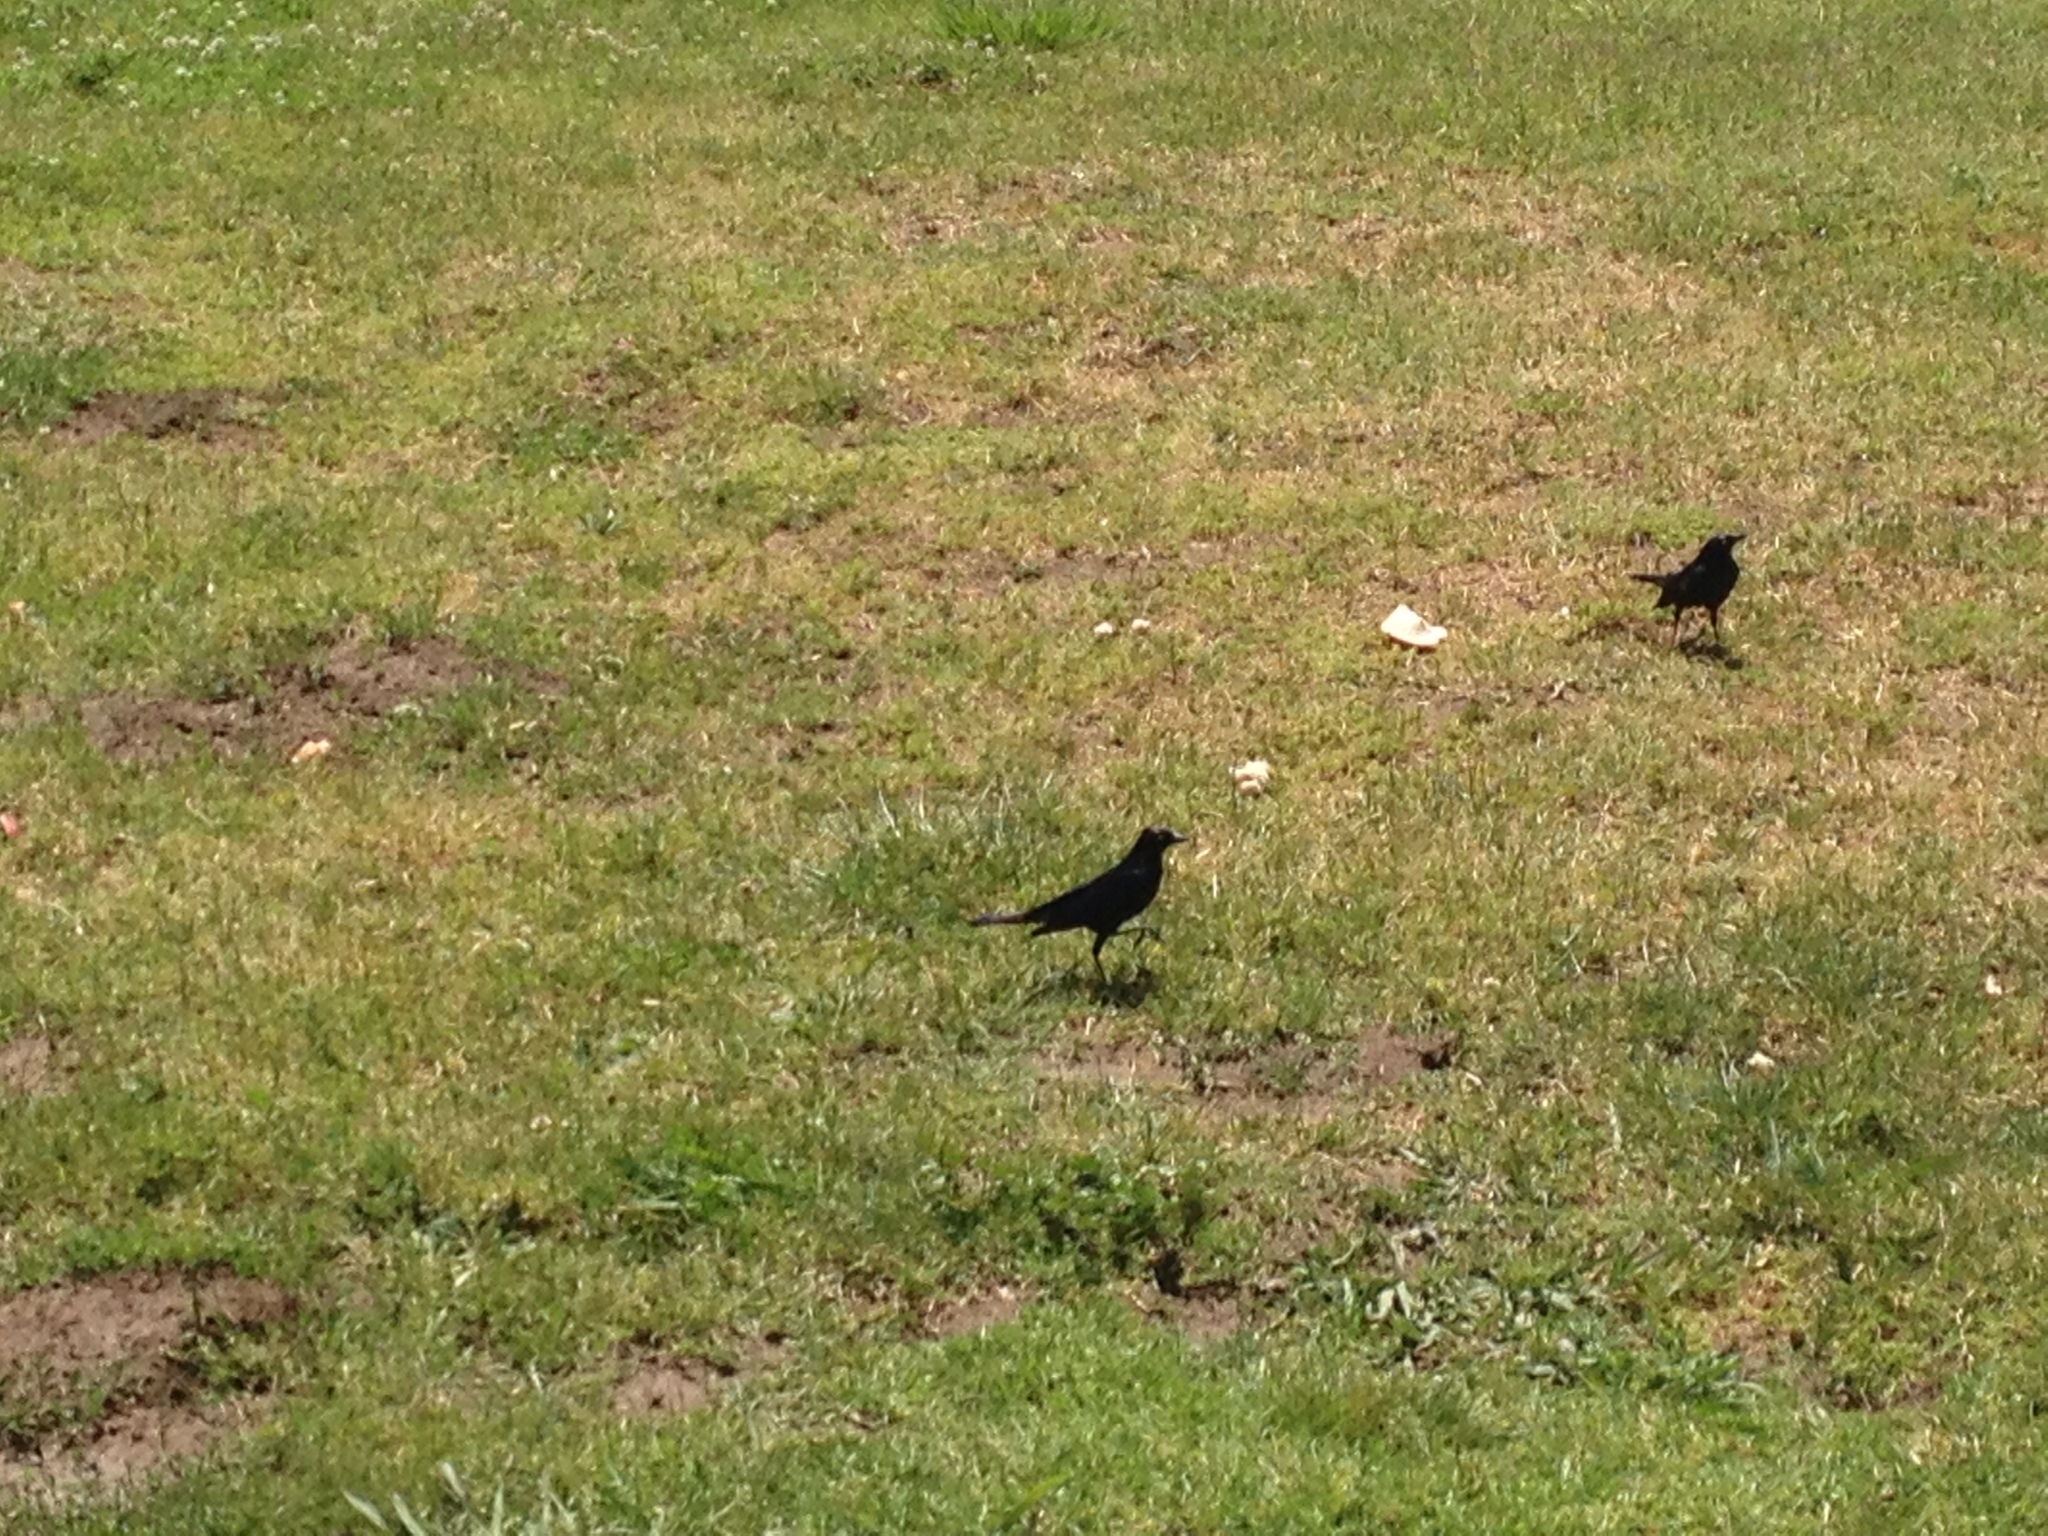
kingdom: Animalia
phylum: Chordata
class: Aves
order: Passeriformes
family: Icteridae
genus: Euphagus
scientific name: Euphagus cyanocephalus
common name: Brewer's blackbird
